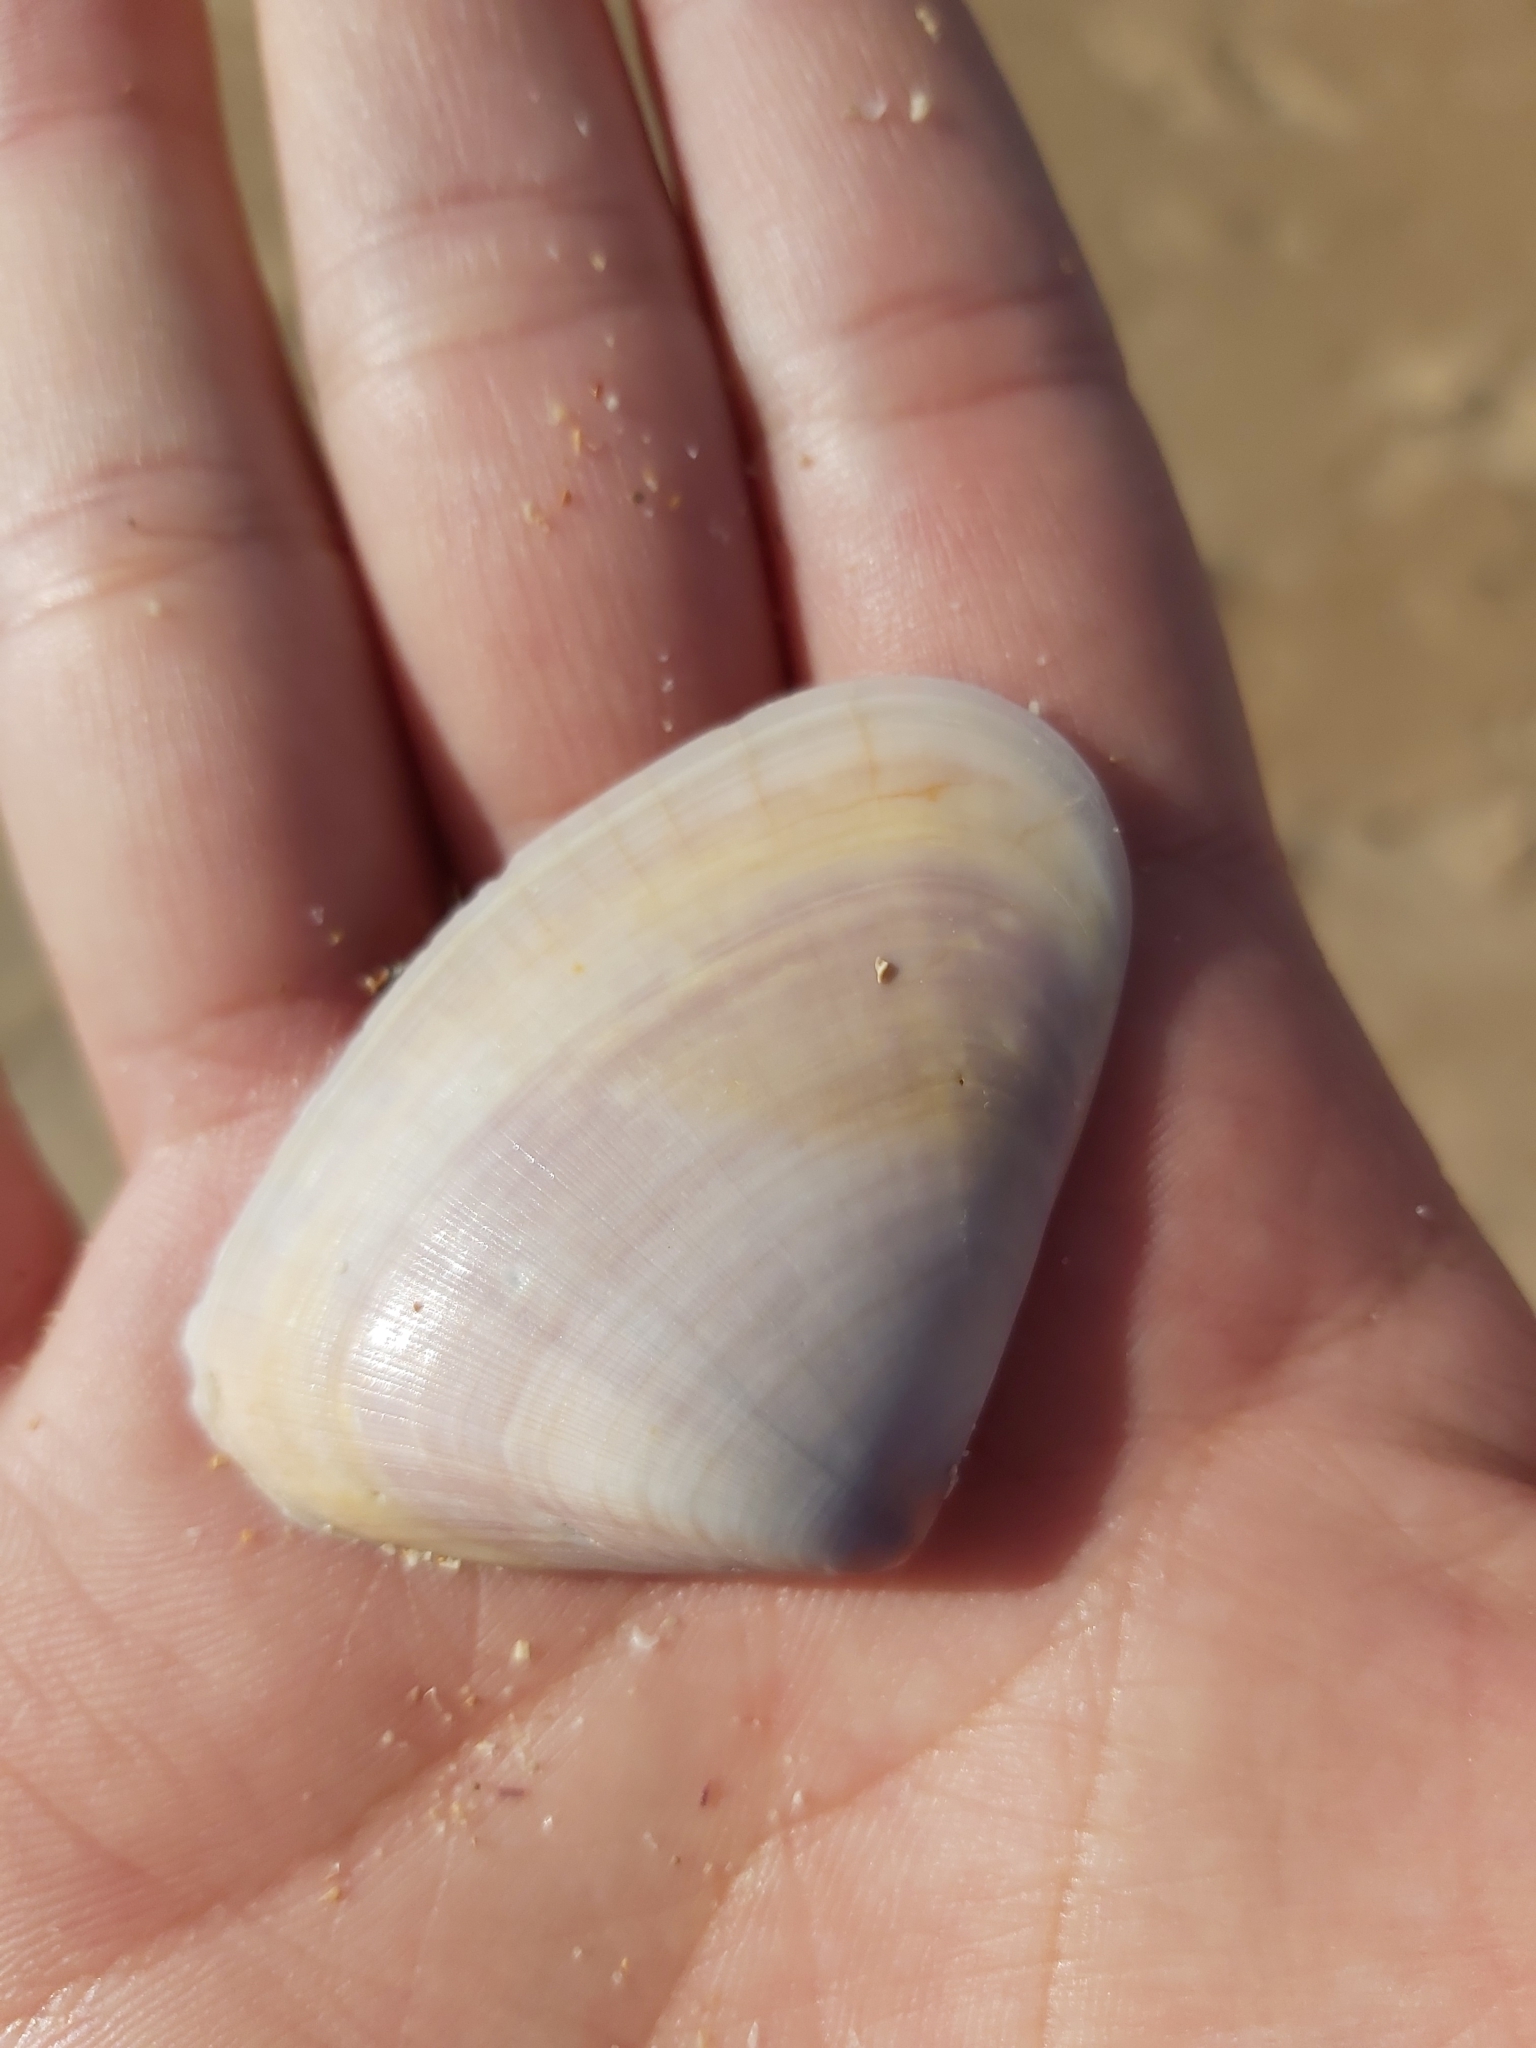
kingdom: Animalia
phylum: Mollusca
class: Bivalvia
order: Cardiida
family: Donacidae
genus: Latona
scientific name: Latona deltoides
